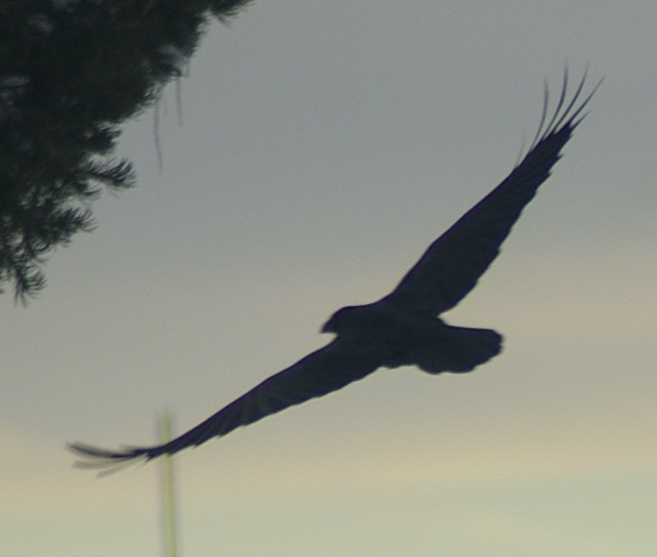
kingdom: Animalia
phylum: Chordata
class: Aves
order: Passeriformes
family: Corvidae
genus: Corvus
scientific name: Corvus corax
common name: Common raven
